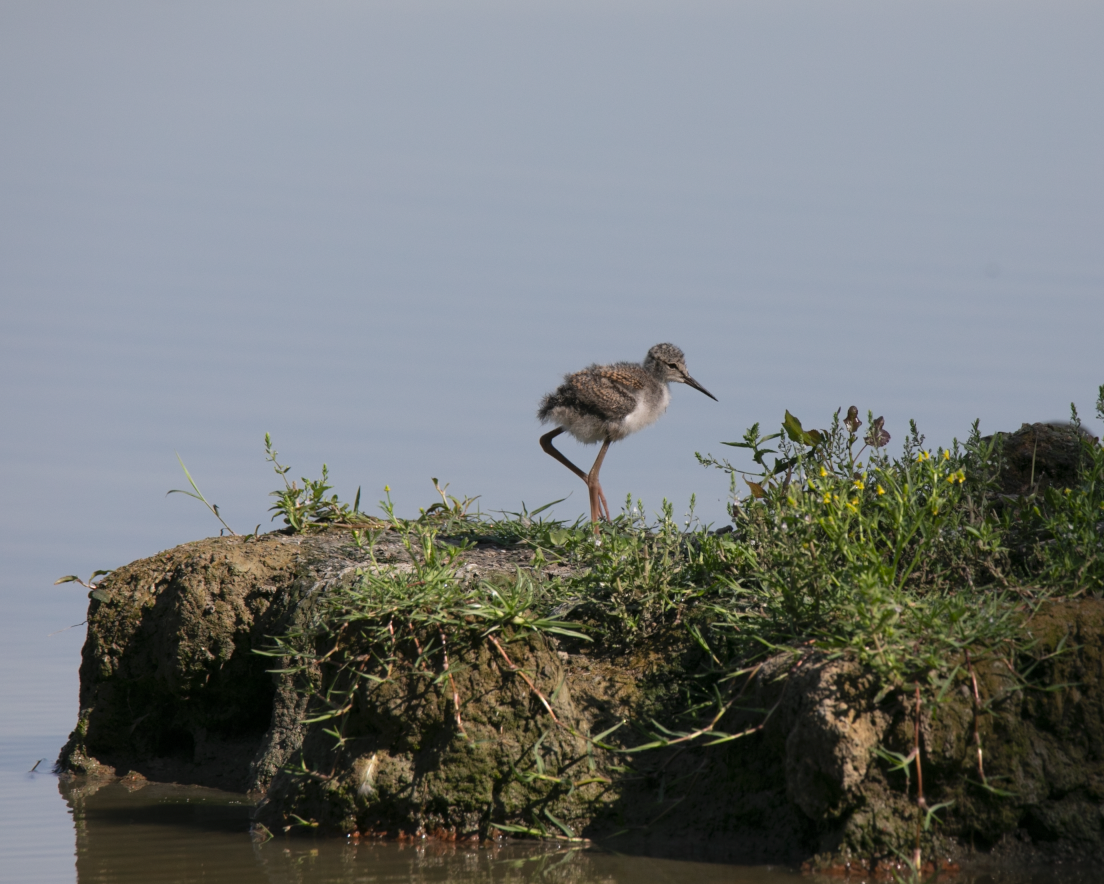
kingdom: Animalia
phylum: Chordata
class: Aves
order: Charadriiformes
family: Recurvirostridae
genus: Himantopus
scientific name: Himantopus himantopus
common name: Black-winged stilt
